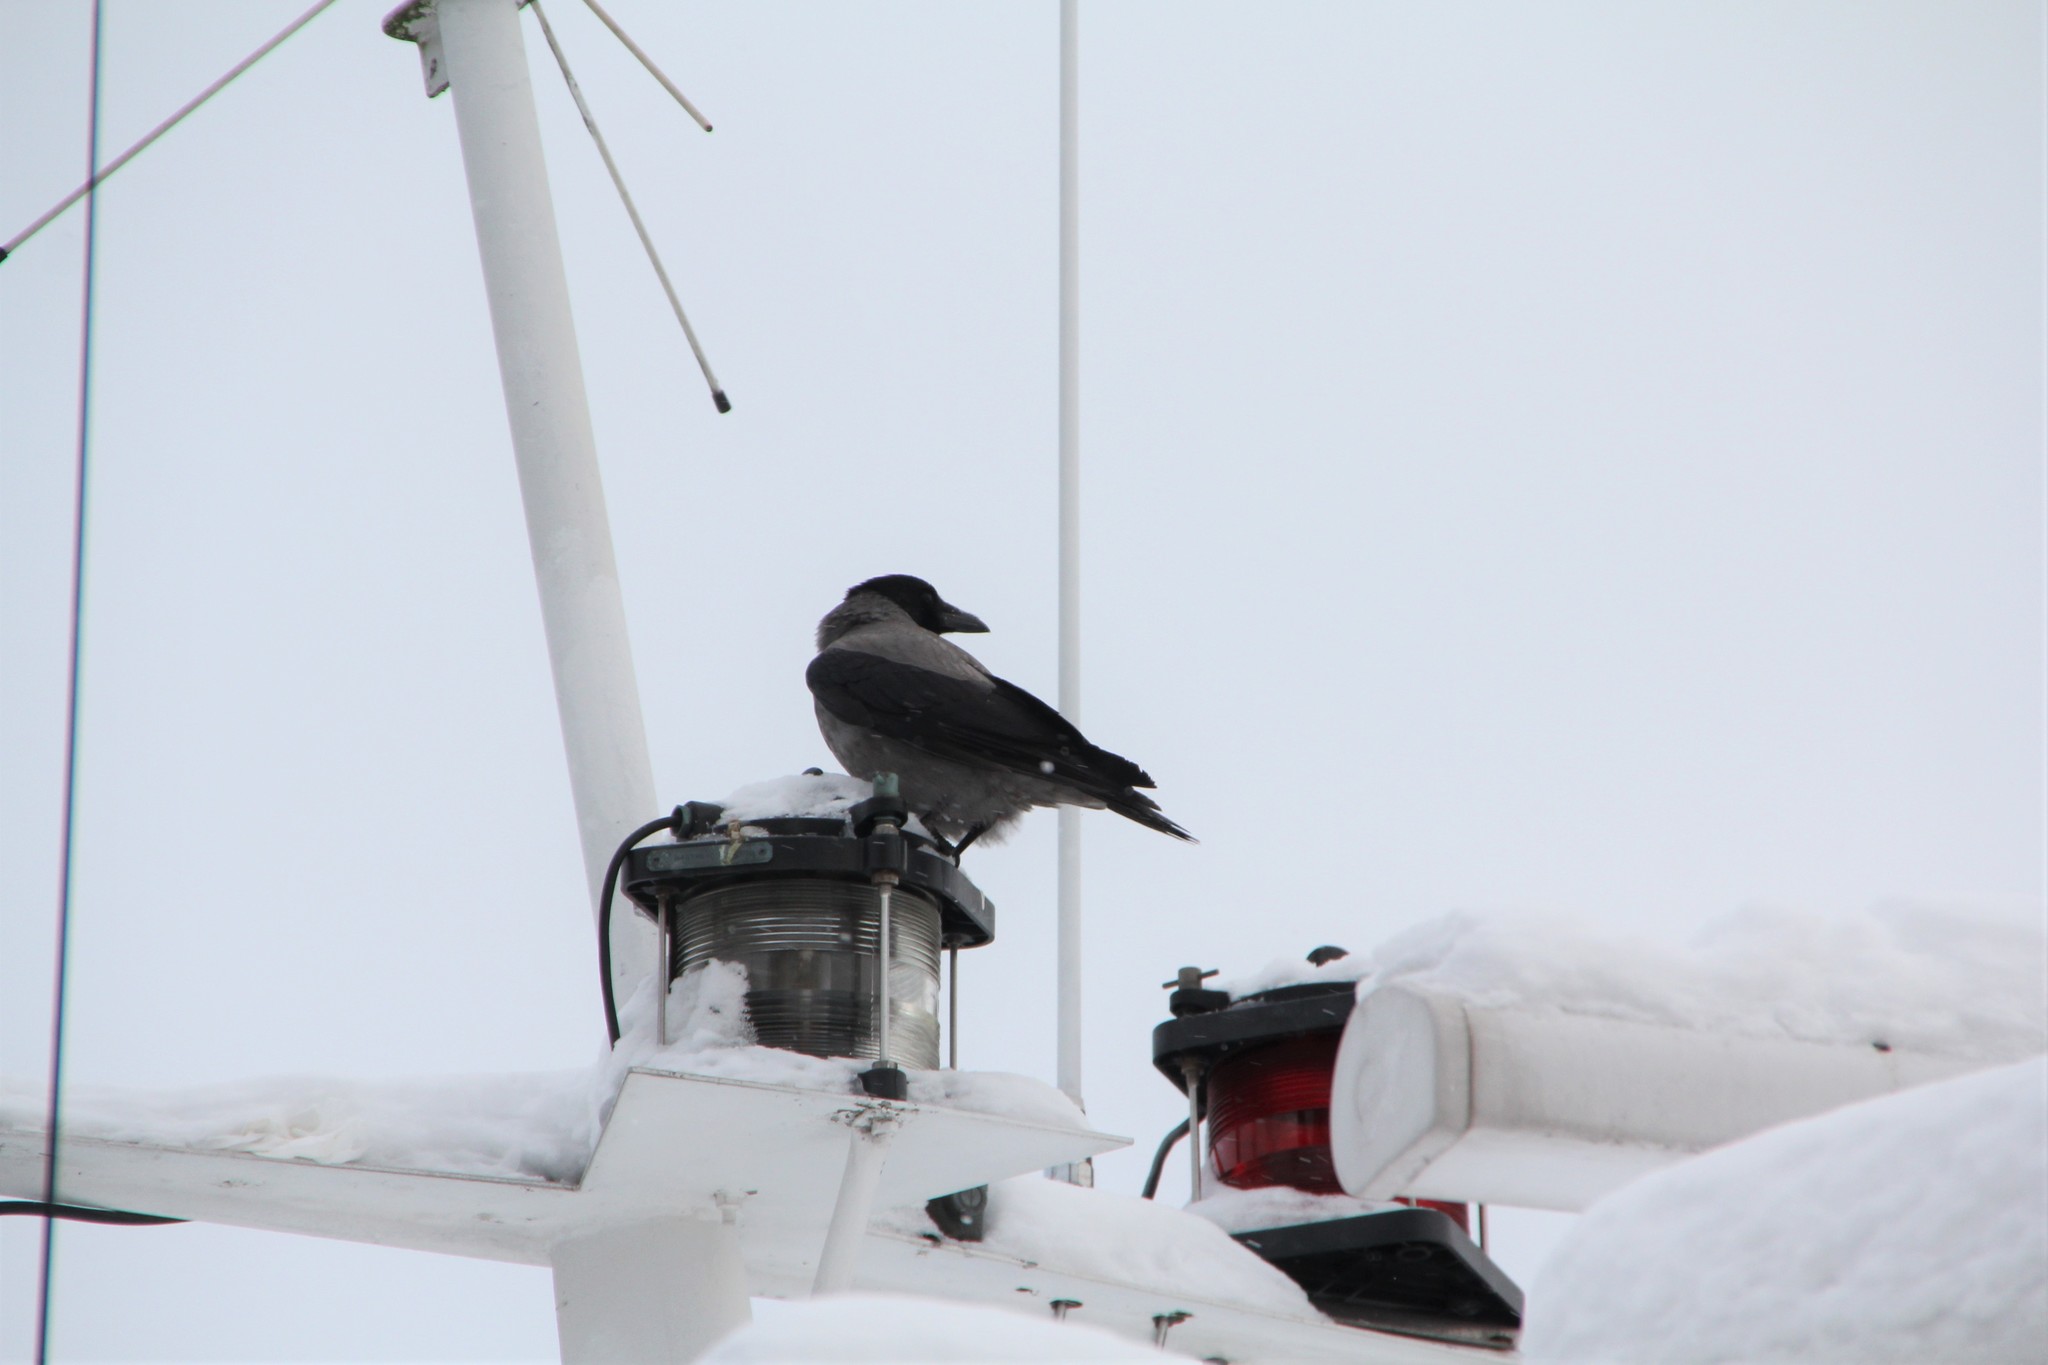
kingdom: Animalia
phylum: Chordata
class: Aves
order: Passeriformes
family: Corvidae
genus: Corvus
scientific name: Corvus cornix
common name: Hooded crow
